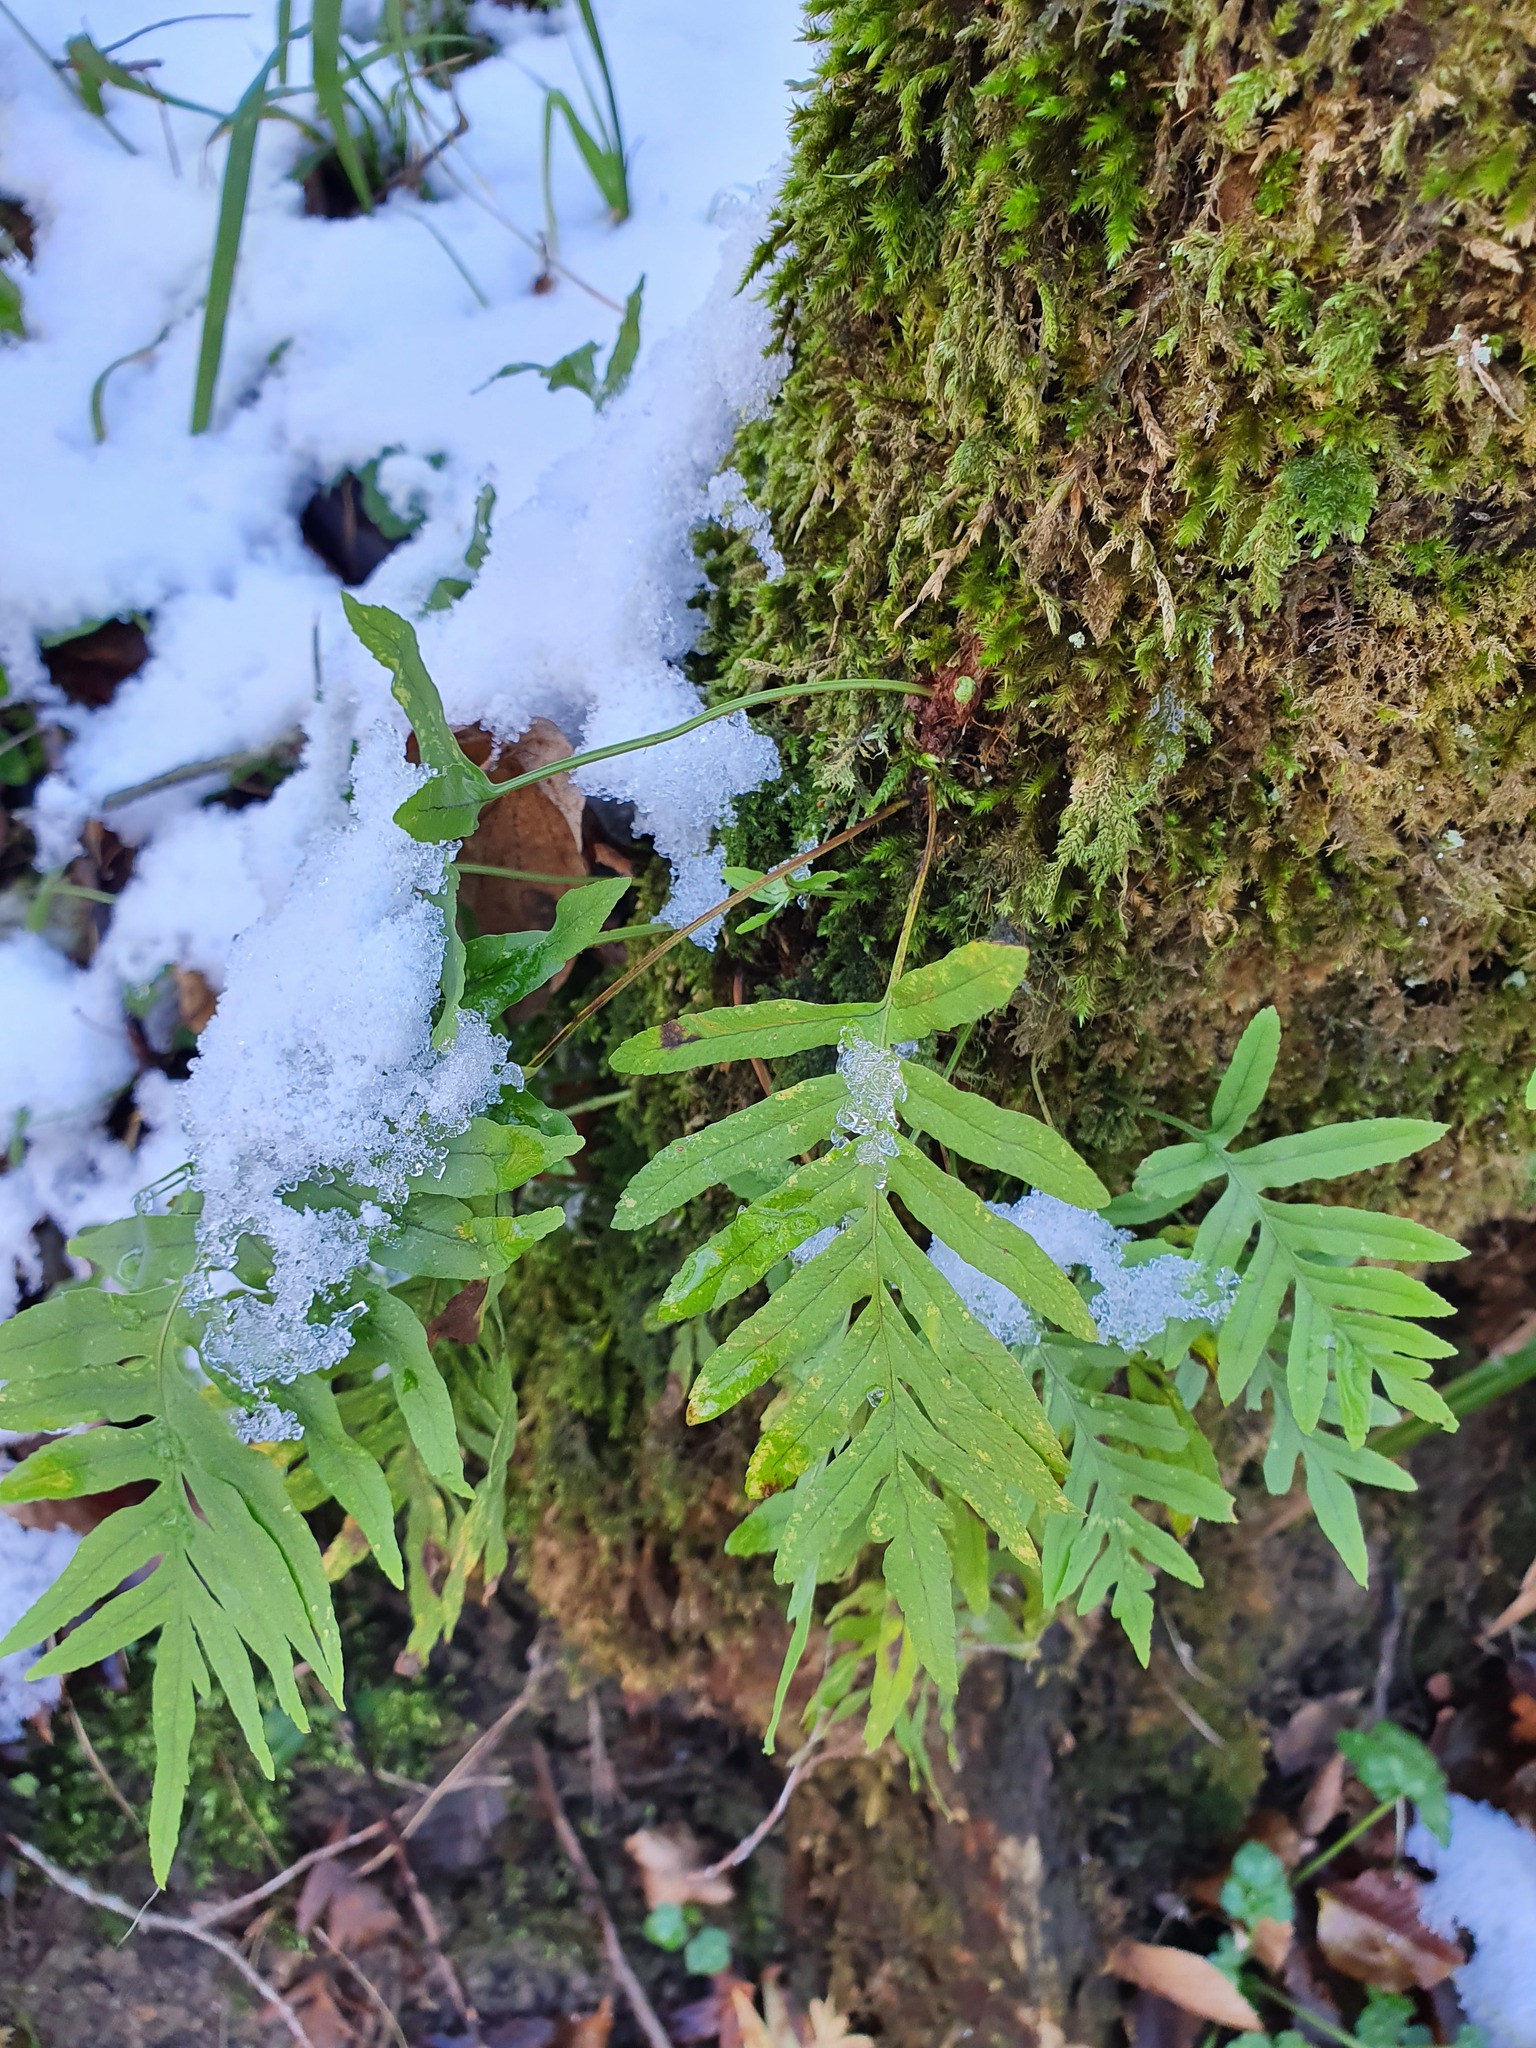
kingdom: Plantae
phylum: Tracheophyta
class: Polypodiopsida
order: Polypodiales
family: Polypodiaceae
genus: Polypodium
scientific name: Polypodium cambricum
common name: Southern polypody
